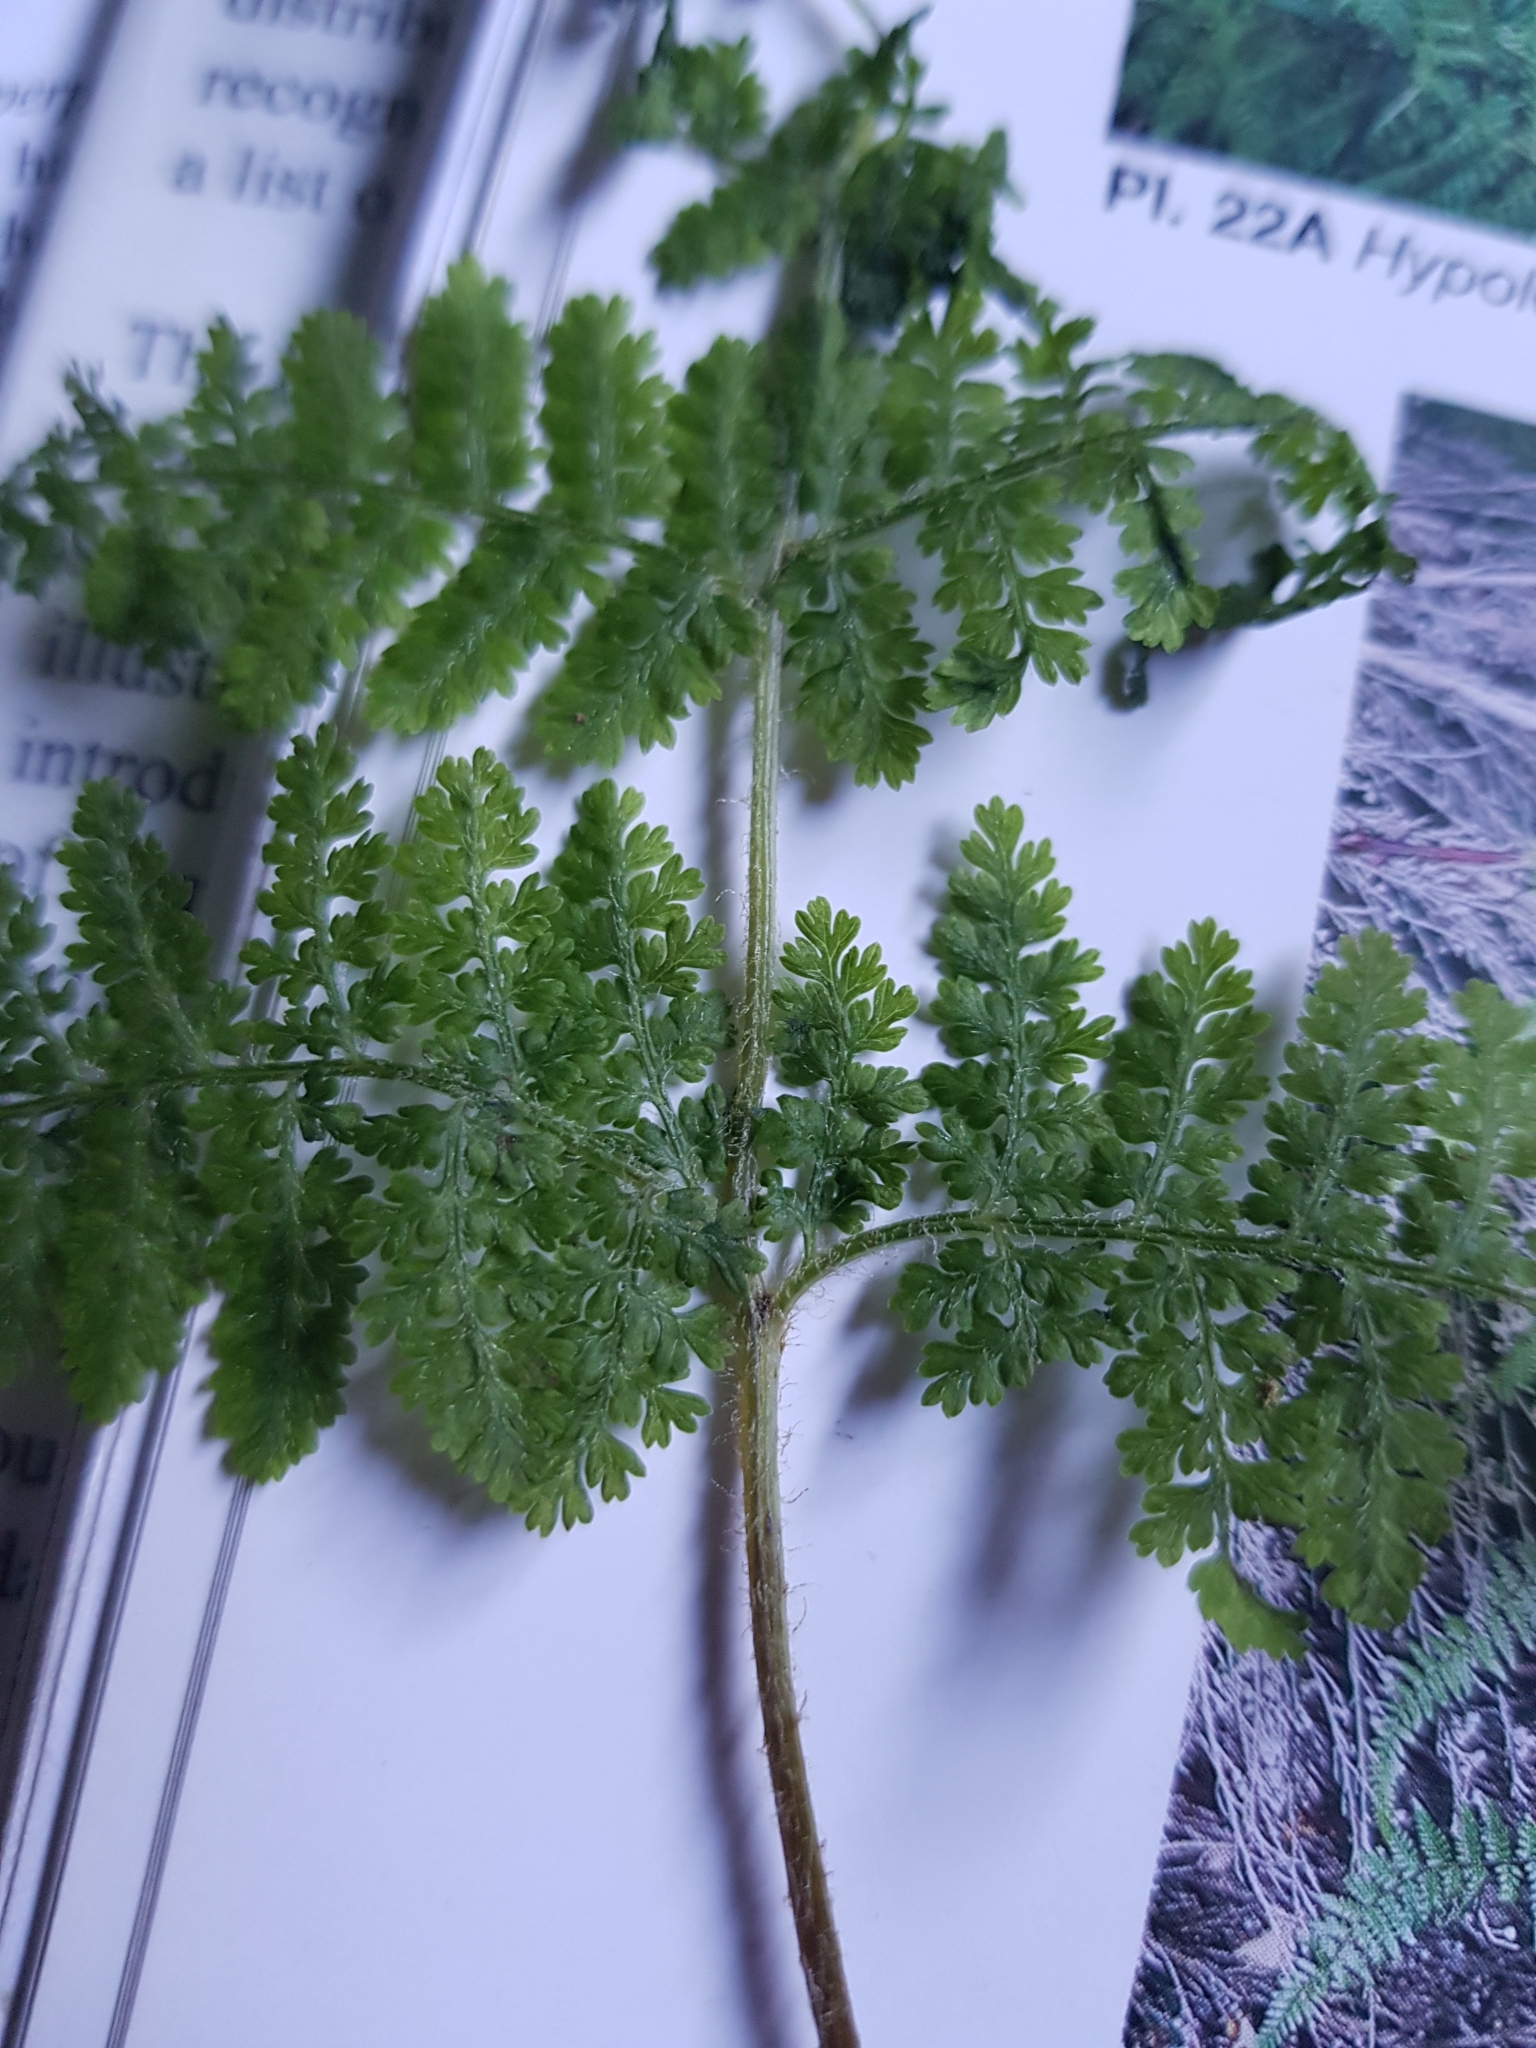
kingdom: Plantae
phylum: Tracheophyta
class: Polypodiopsida
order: Polypodiales
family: Dennstaedtiaceae
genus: Hypolepis
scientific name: Hypolepis millefolium
